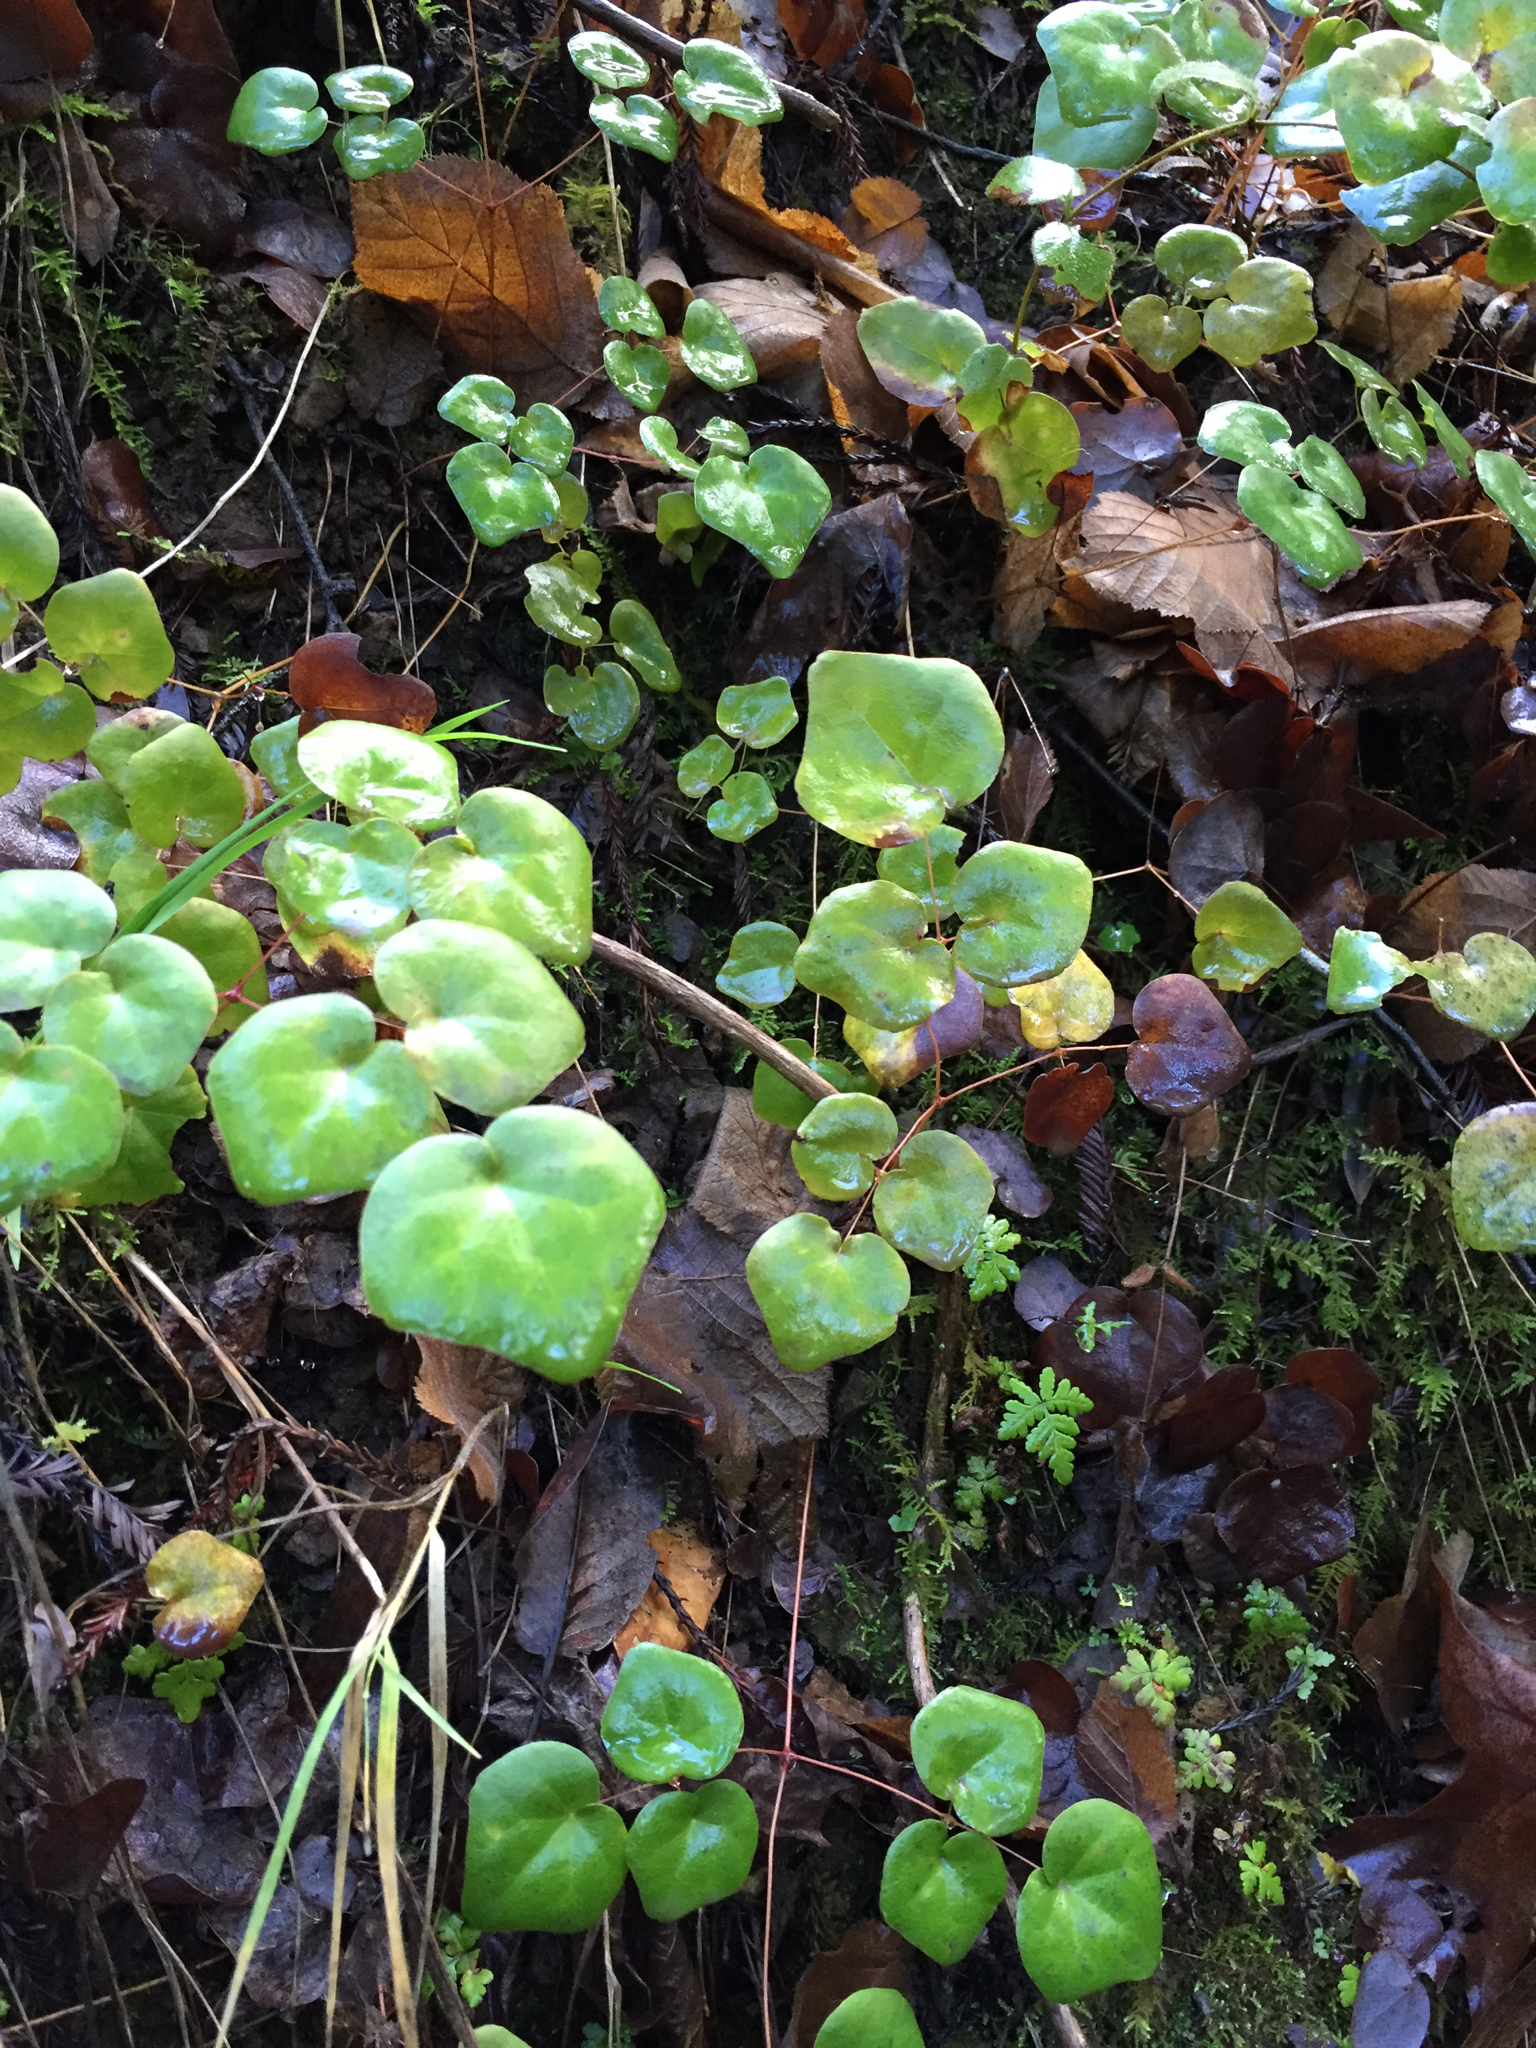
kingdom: Plantae
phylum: Tracheophyta
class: Magnoliopsida
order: Ranunculales
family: Berberidaceae
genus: Vancouveria
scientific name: Vancouveria planipetala
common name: Redwood-ivy
